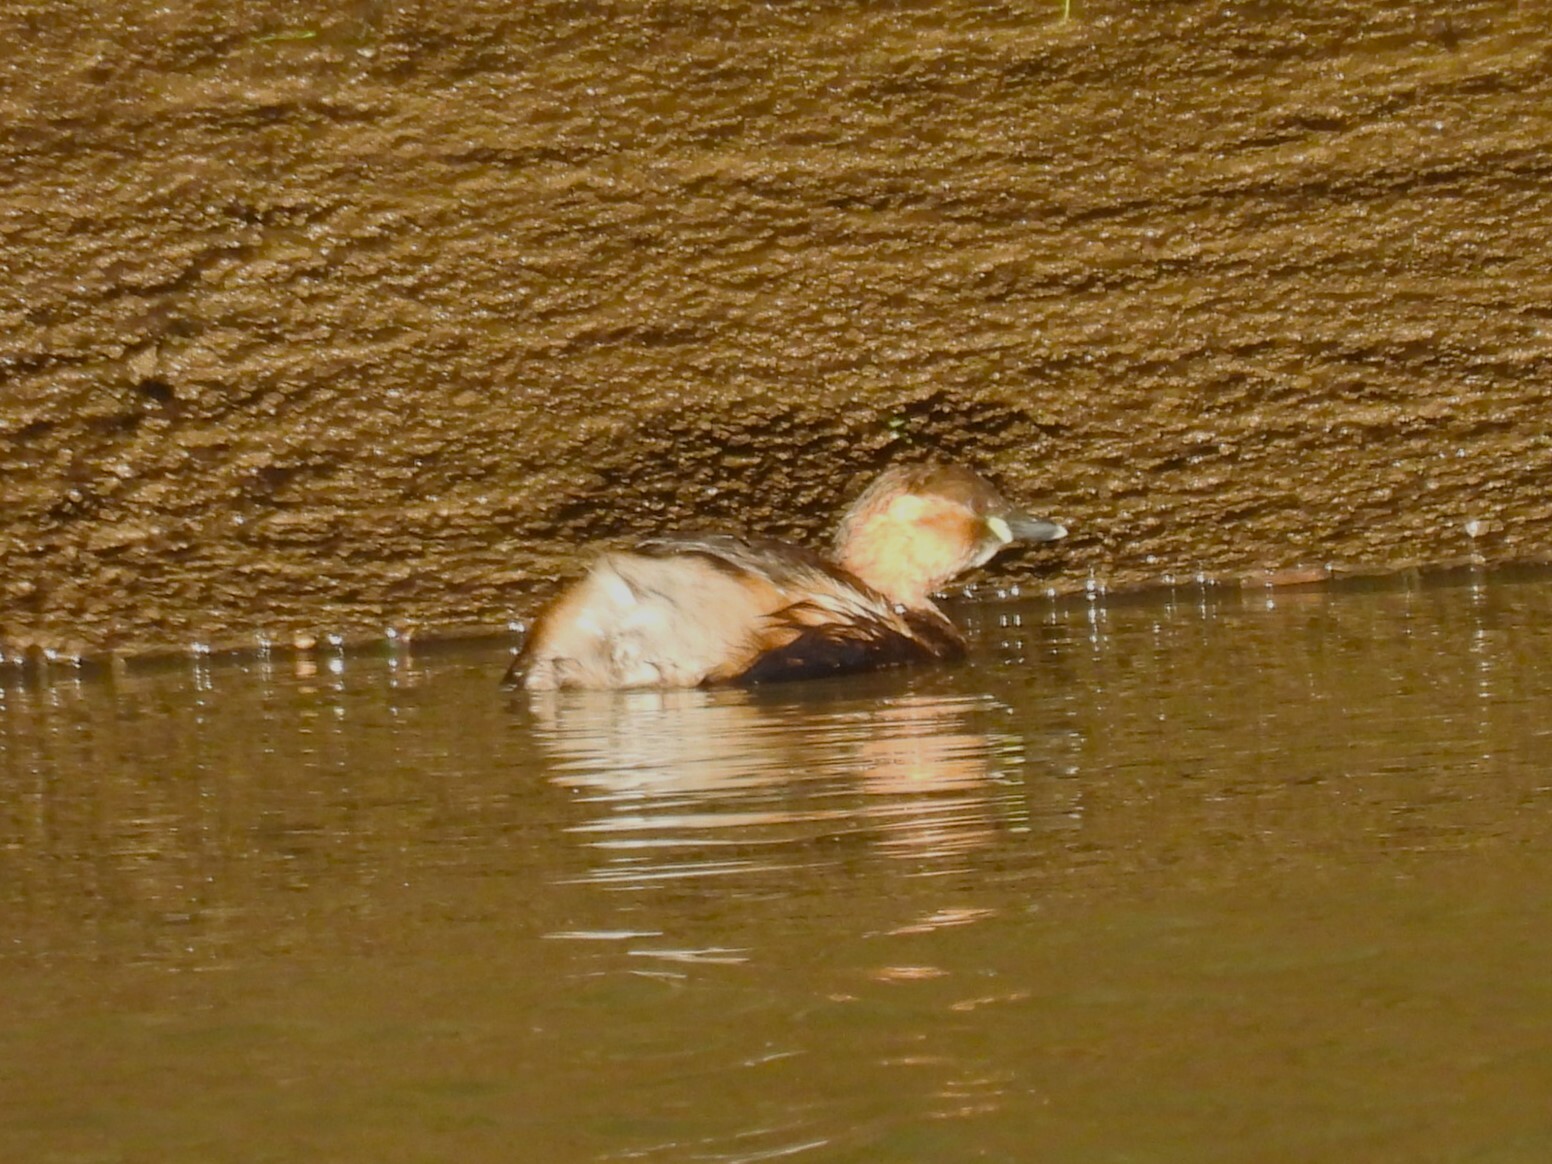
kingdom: Animalia
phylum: Chordata
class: Aves
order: Podicipediformes
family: Podicipedidae
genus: Tachybaptus
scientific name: Tachybaptus ruficollis
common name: Little grebe
